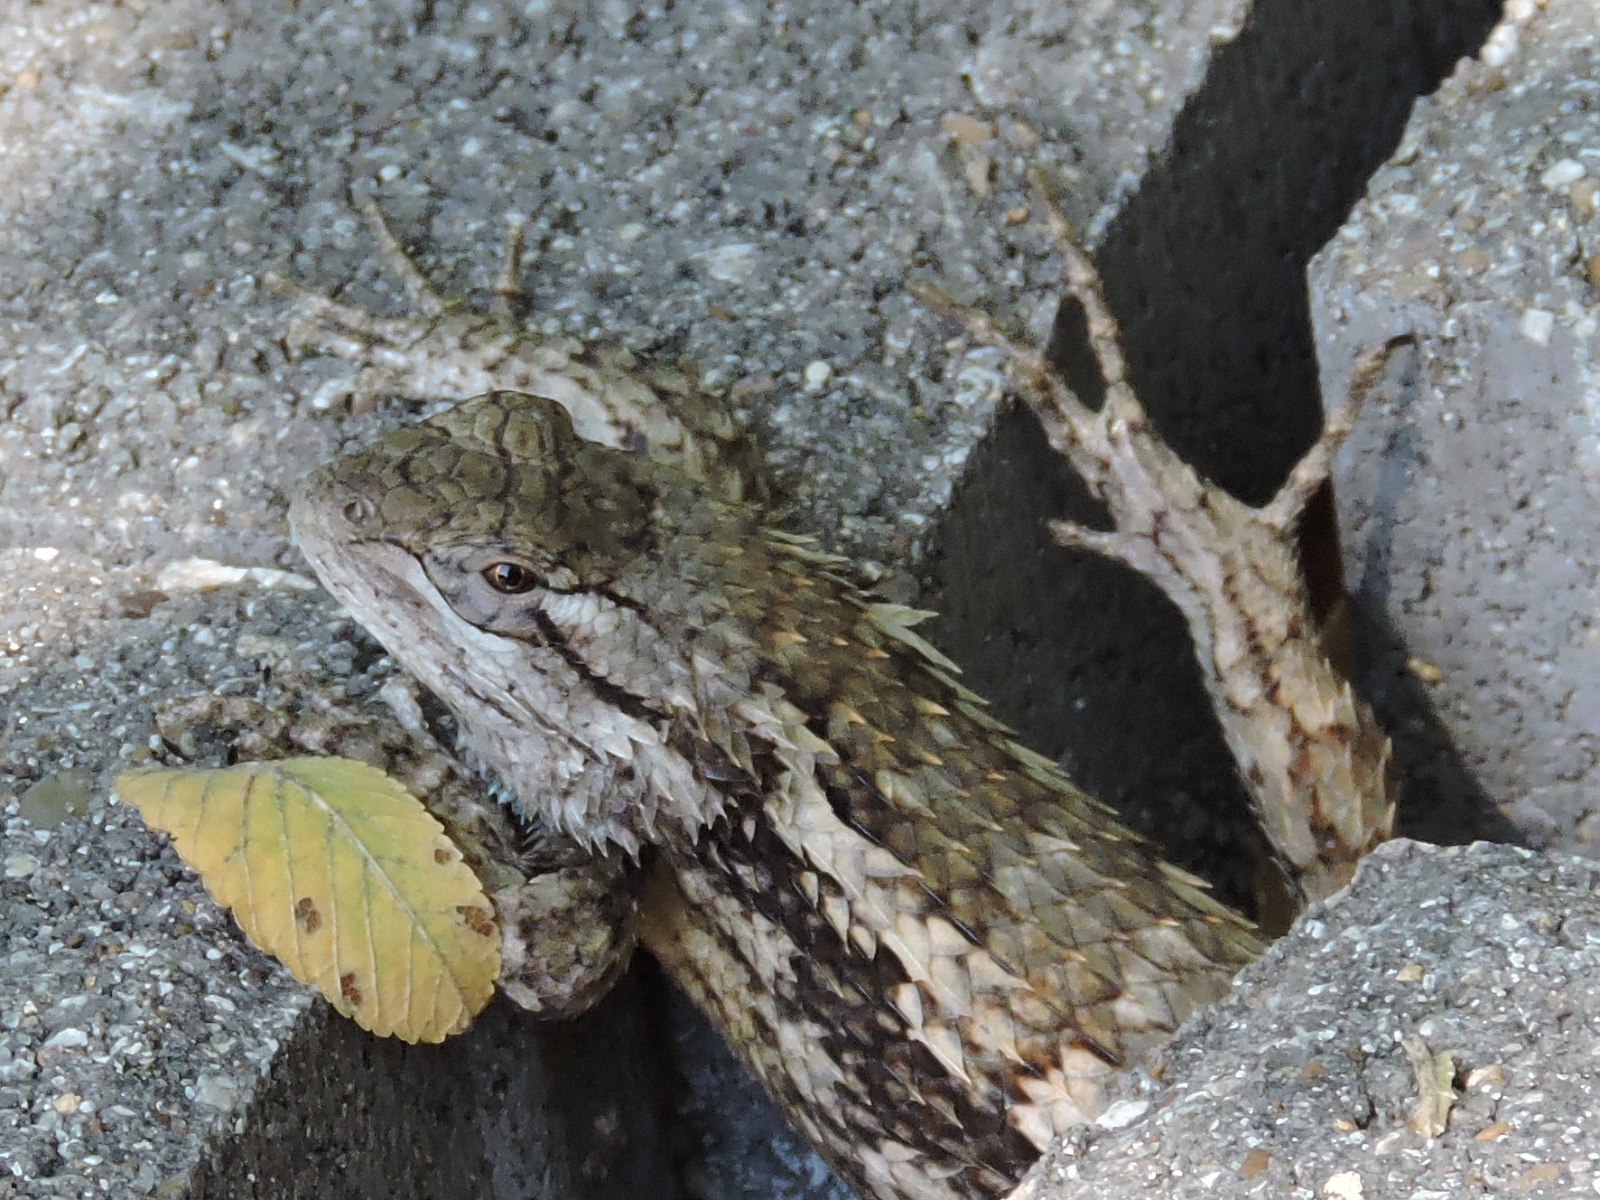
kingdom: Animalia
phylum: Chordata
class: Squamata
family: Phrynosomatidae
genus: Sceloporus
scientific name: Sceloporus olivaceus
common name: Texas spiny lizard
